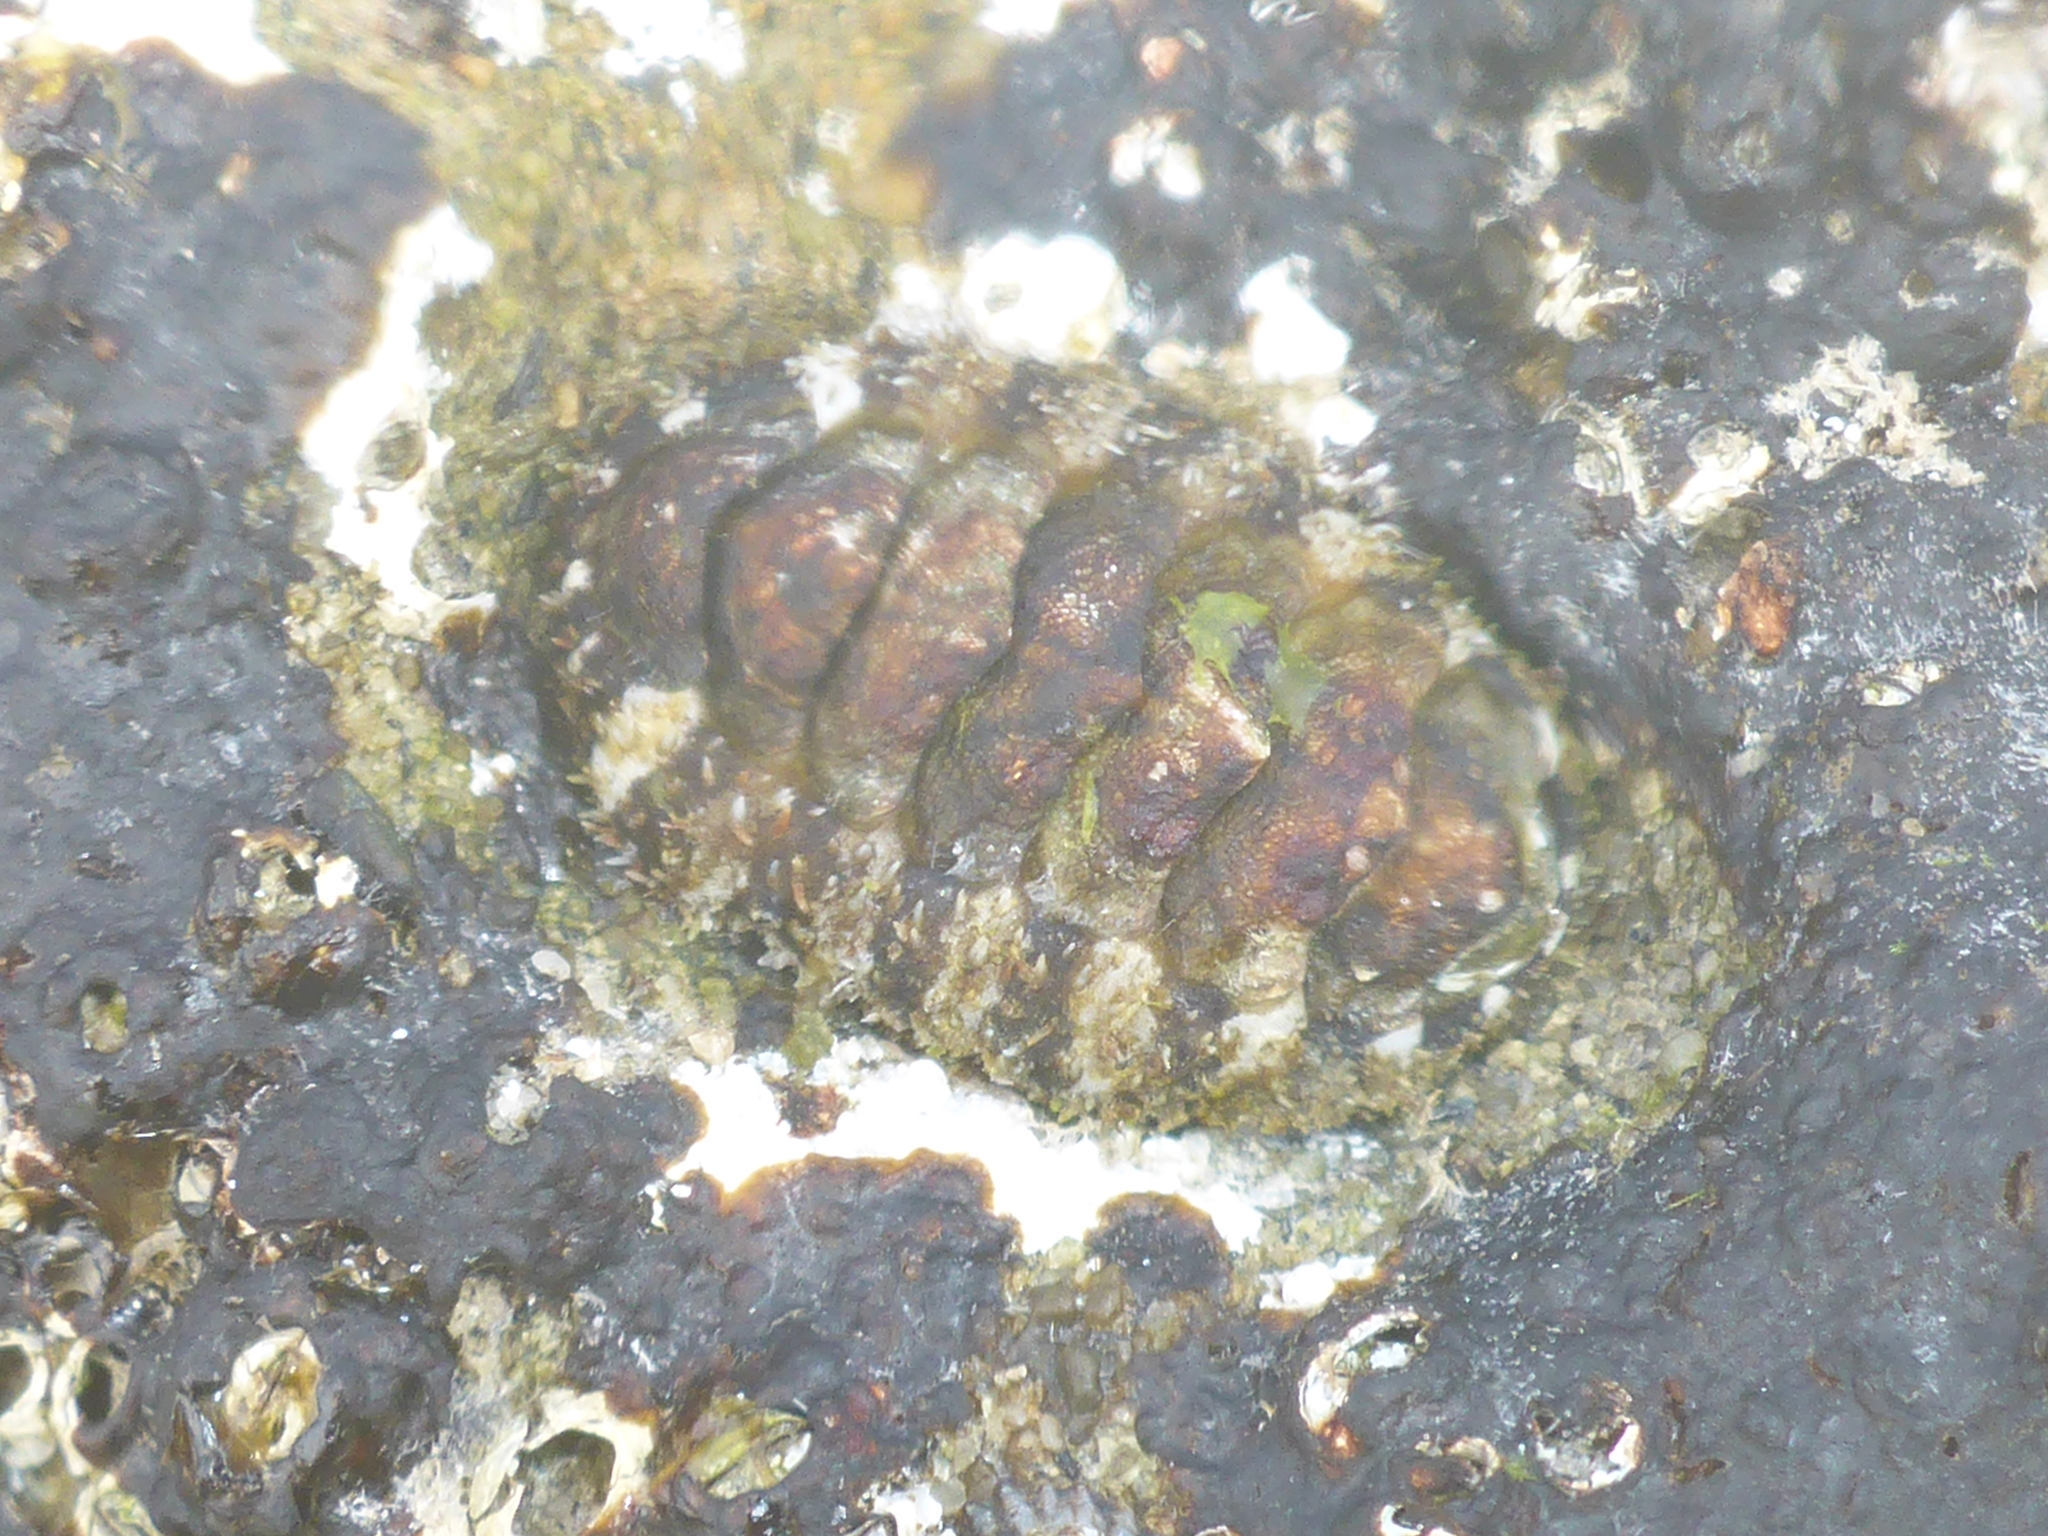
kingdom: Animalia
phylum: Mollusca
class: Polyplacophora
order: Chitonida
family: Tonicellidae
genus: Nuttallina
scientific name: Nuttallina californica
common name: California nuttall chiton
